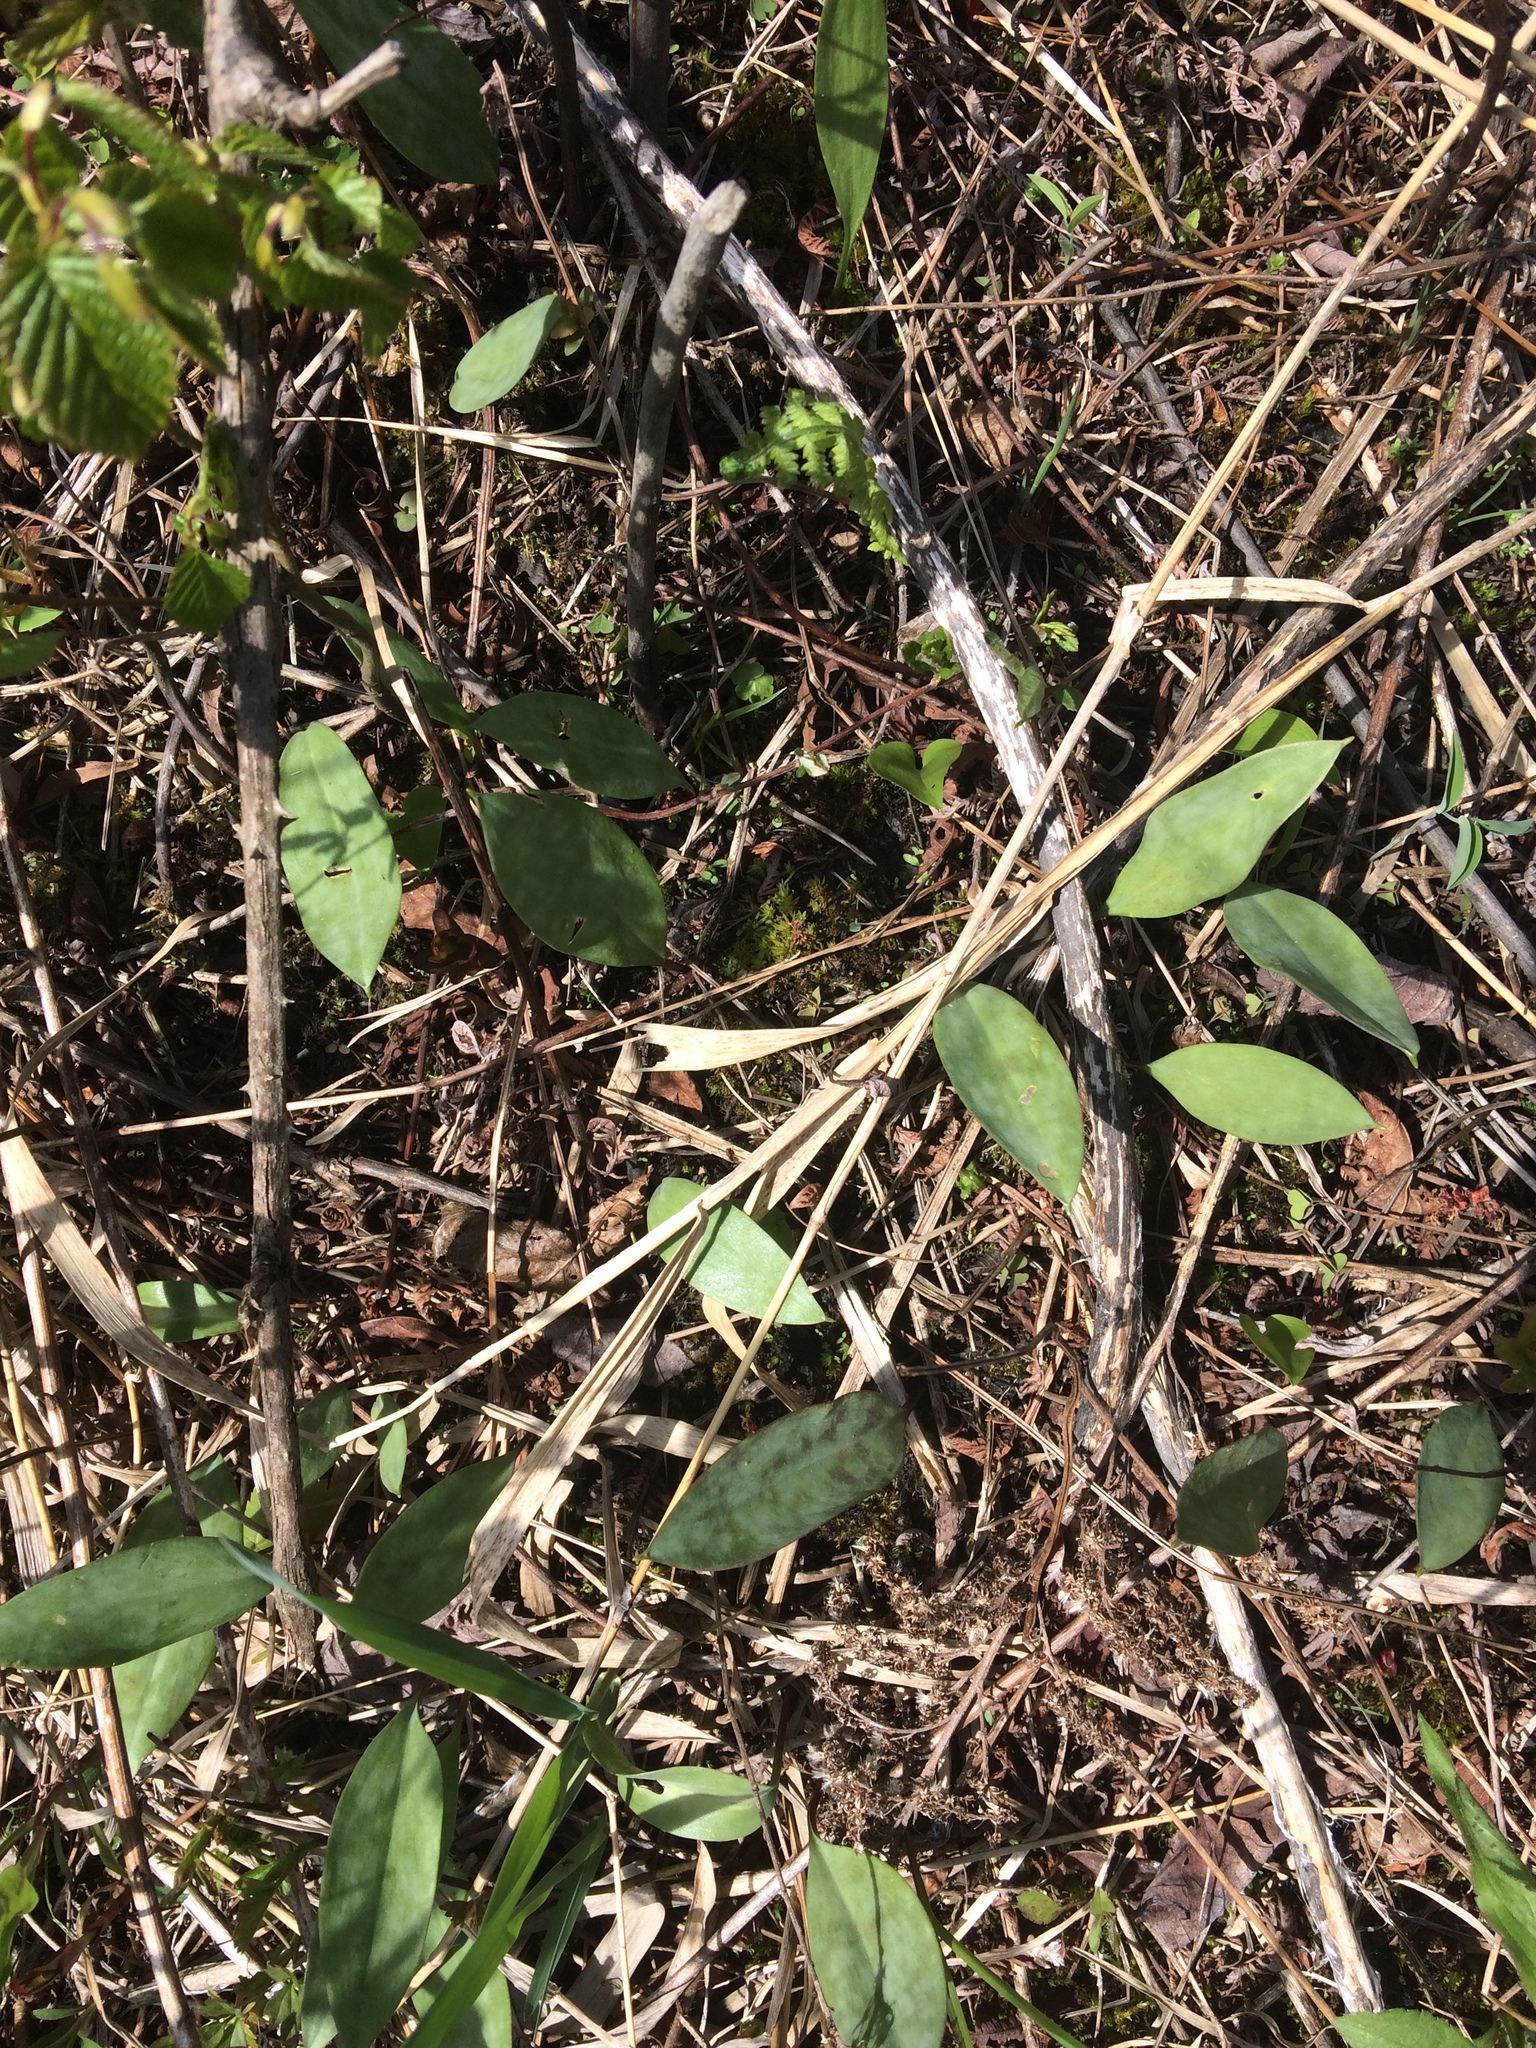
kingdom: Plantae
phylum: Tracheophyta
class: Liliopsida
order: Liliales
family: Liliaceae
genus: Erythronium
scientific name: Erythronium americanum
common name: Yellow adder's-tongue
